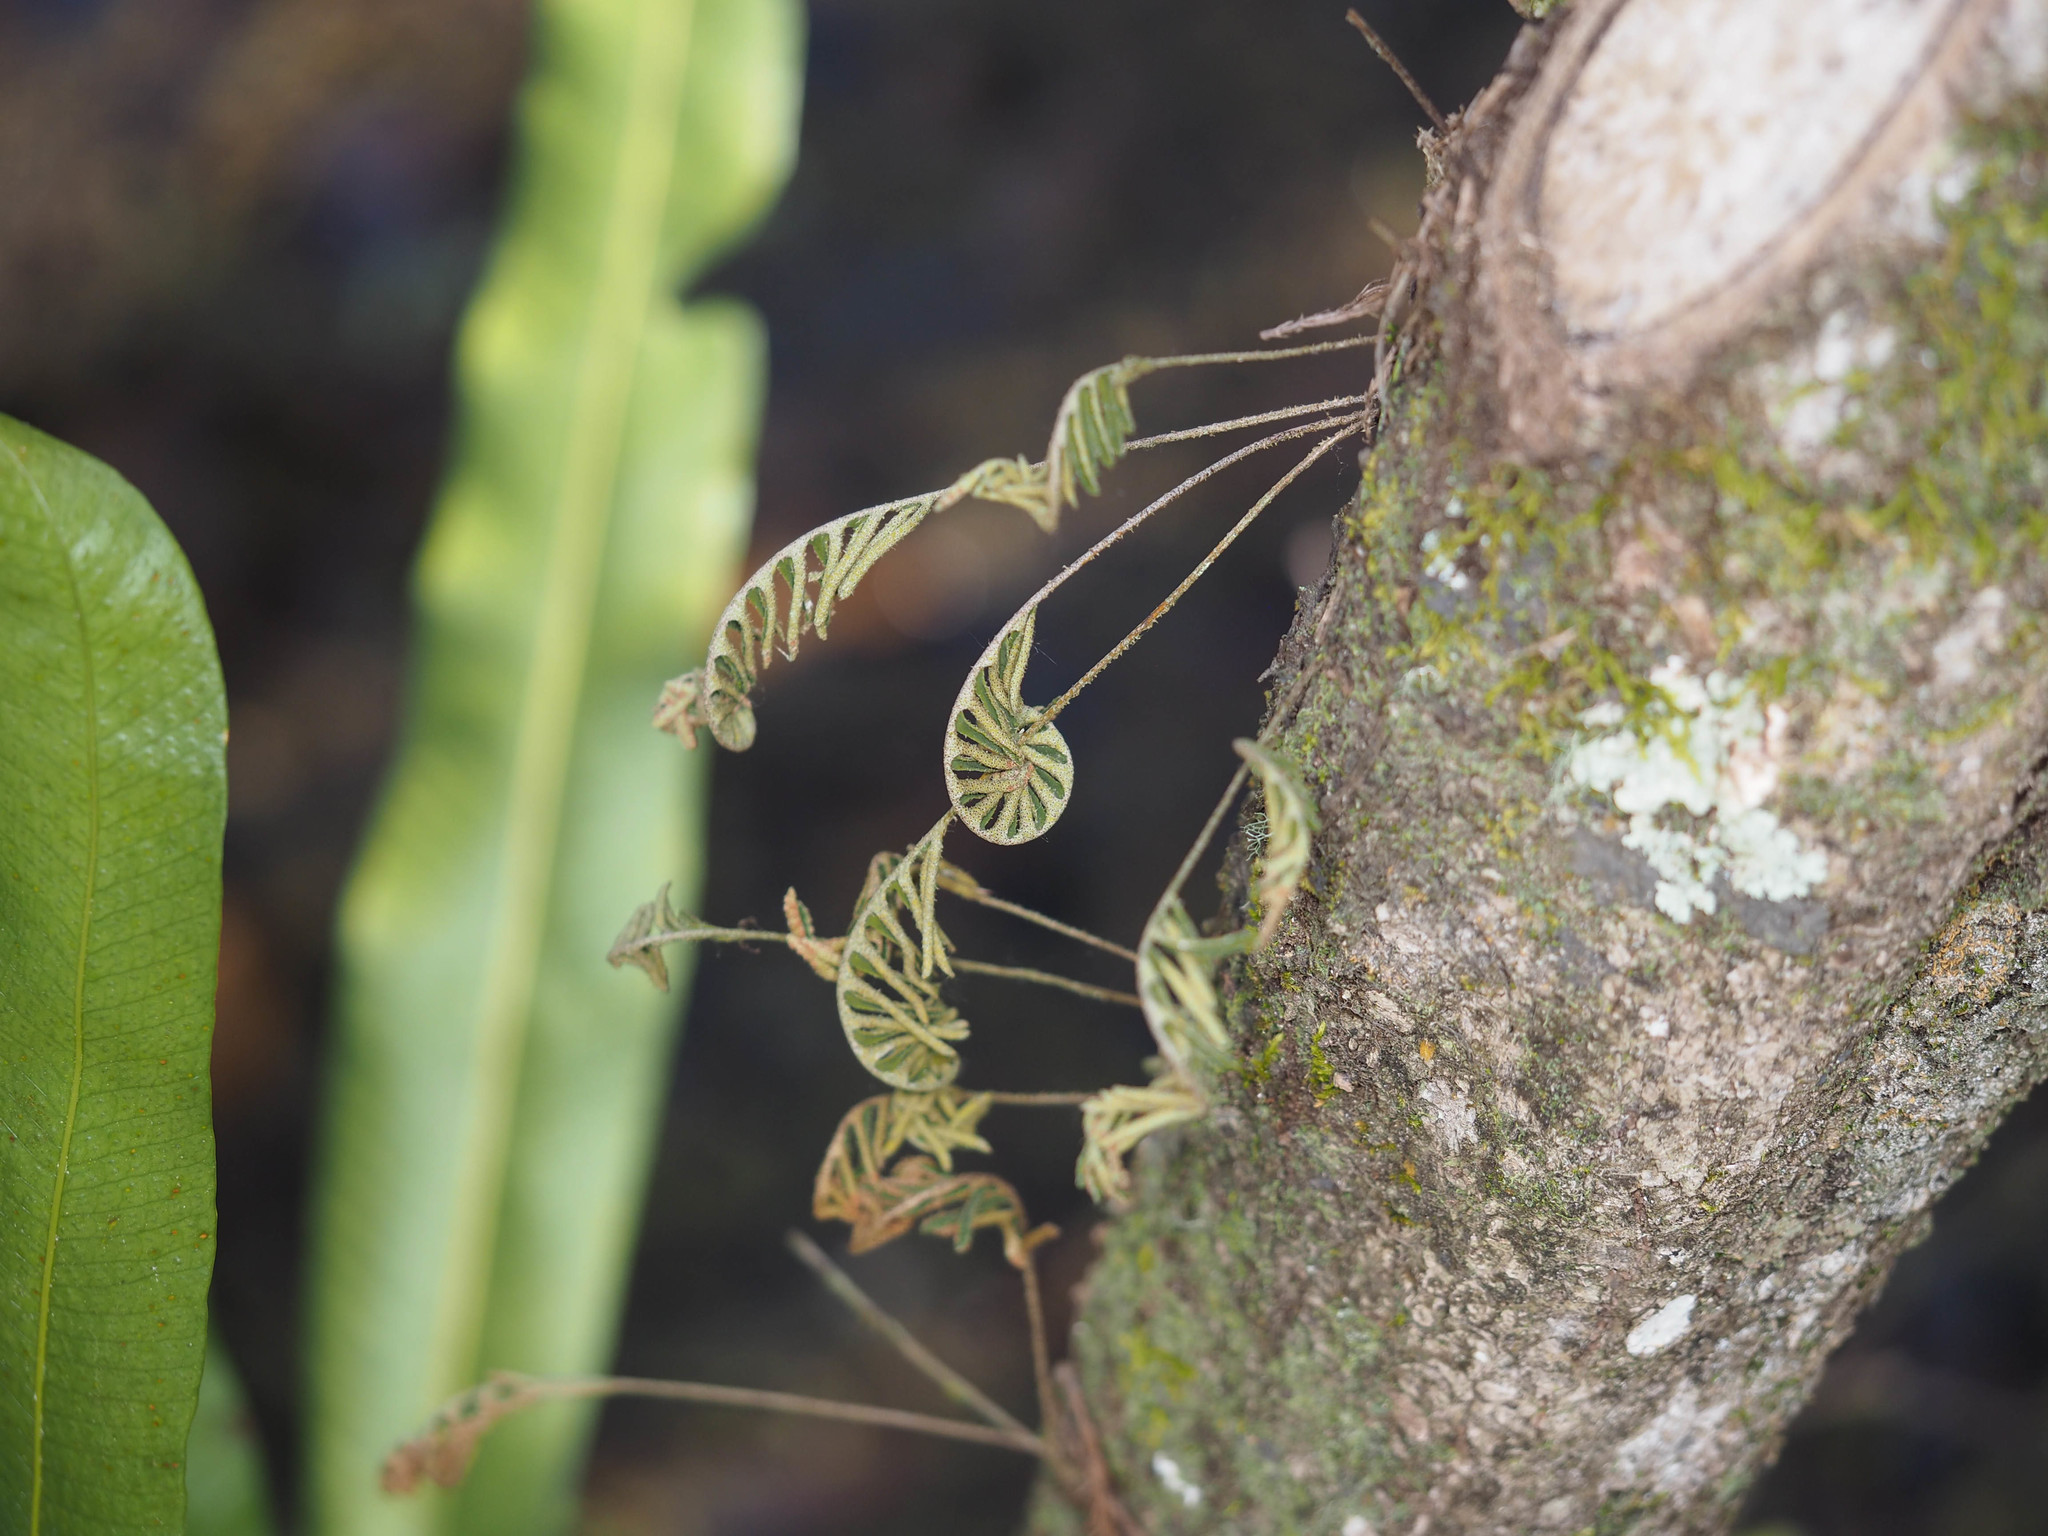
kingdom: Plantae
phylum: Tracheophyta
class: Polypodiopsida
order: Polypodiales
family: Polypodiaceae
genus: Pleopeltis
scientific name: Pleopeltis michauxiana
